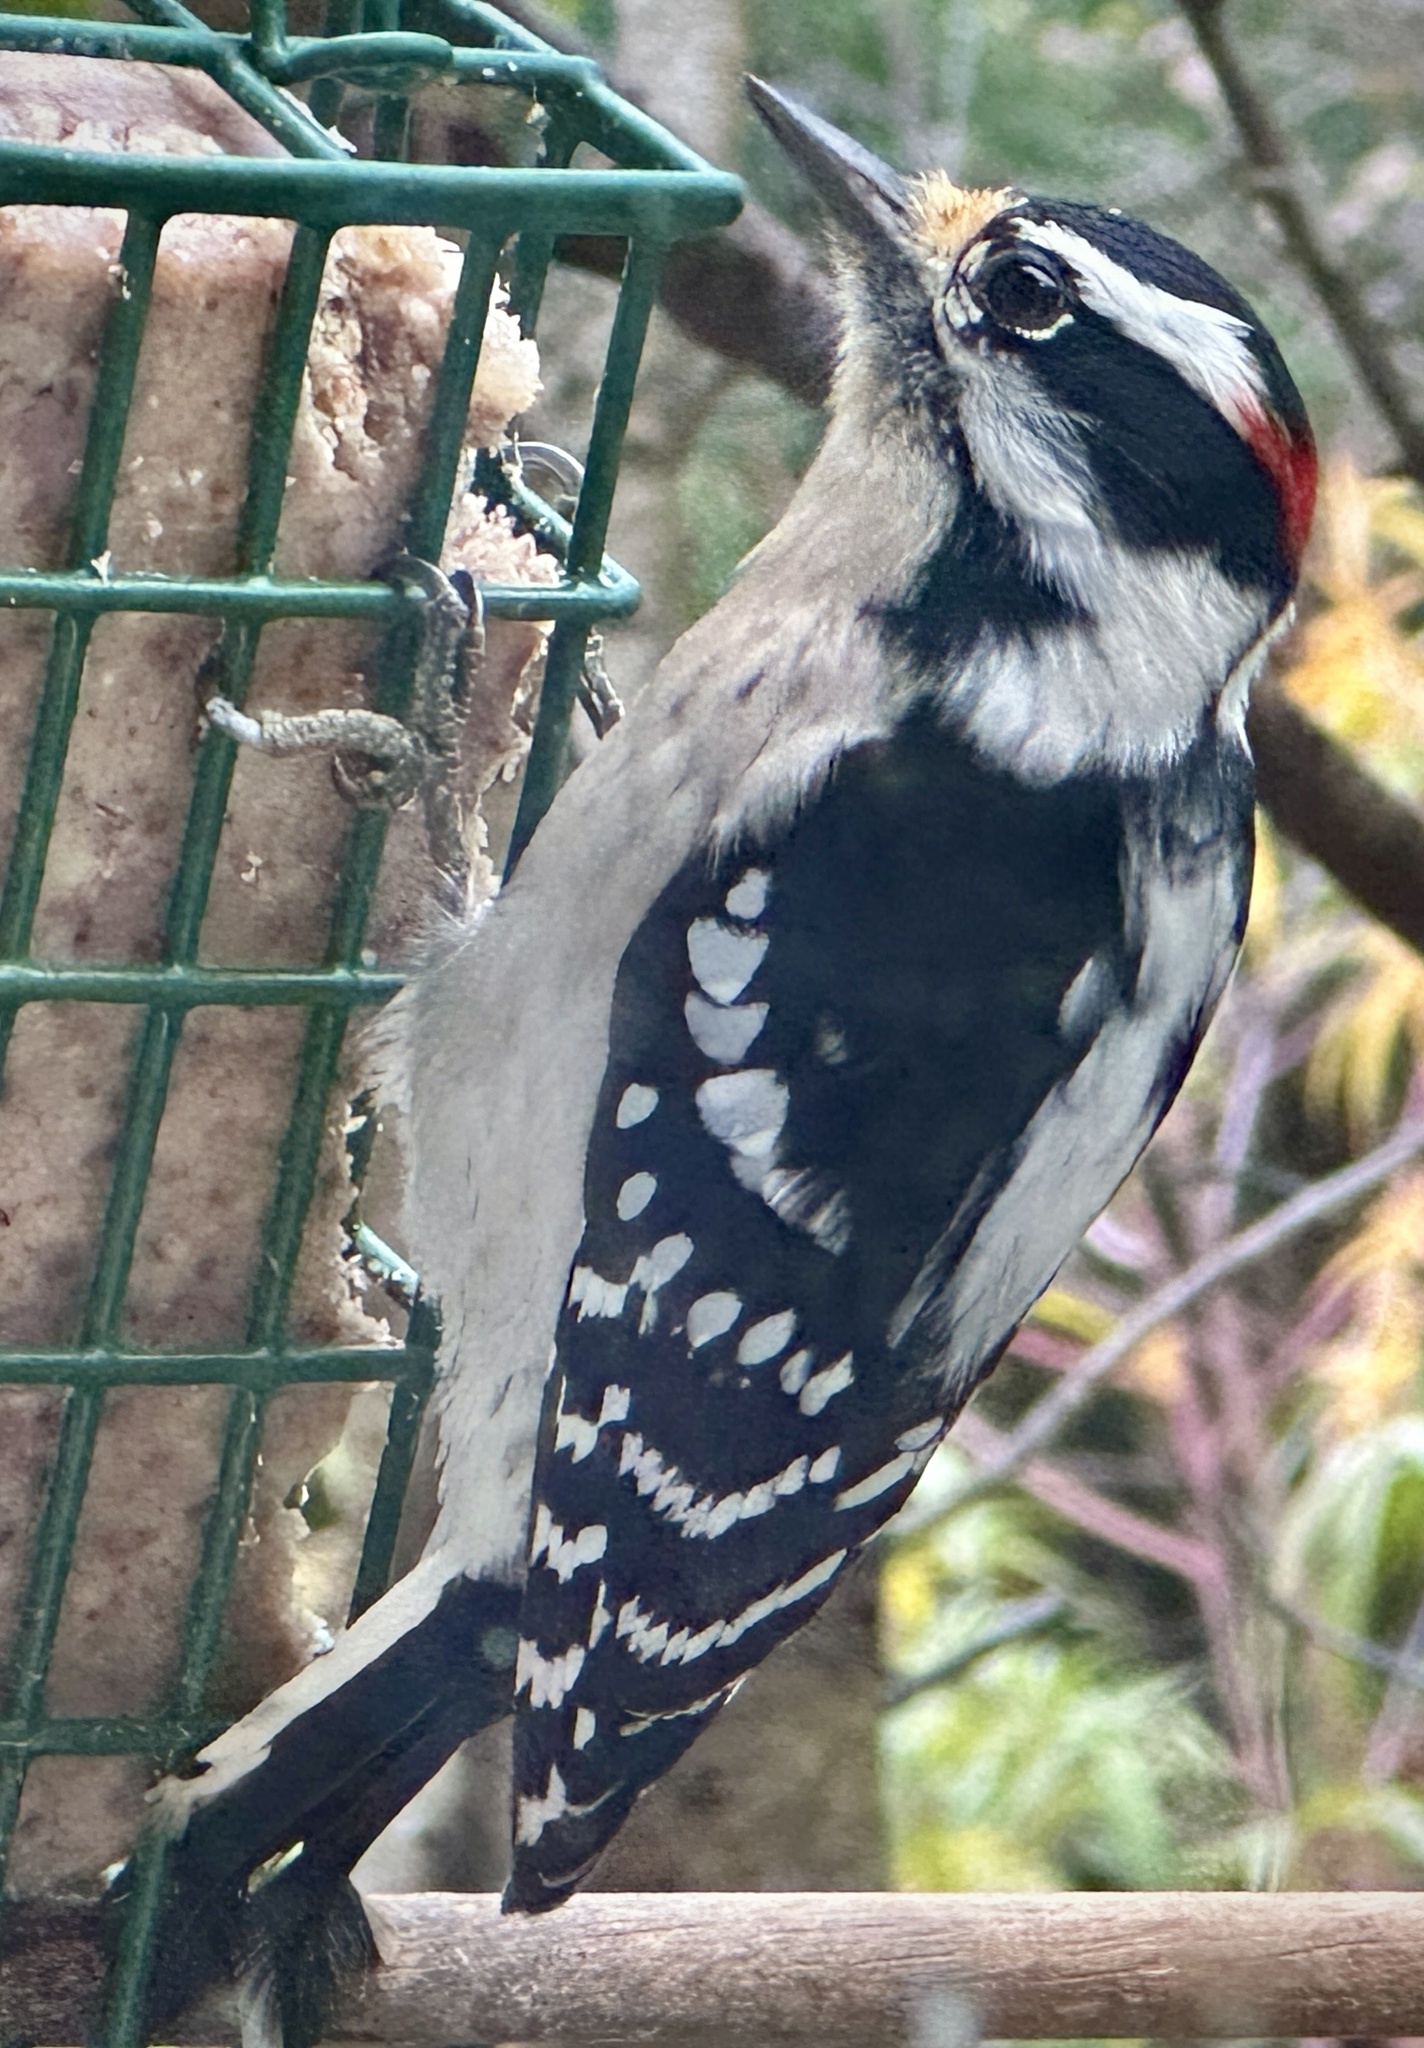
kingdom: Animalia
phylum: Chordata
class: Aves
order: Piciformes
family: Picidae
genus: Dryobates
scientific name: Dryobates pubescens
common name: Downy woodpecker
